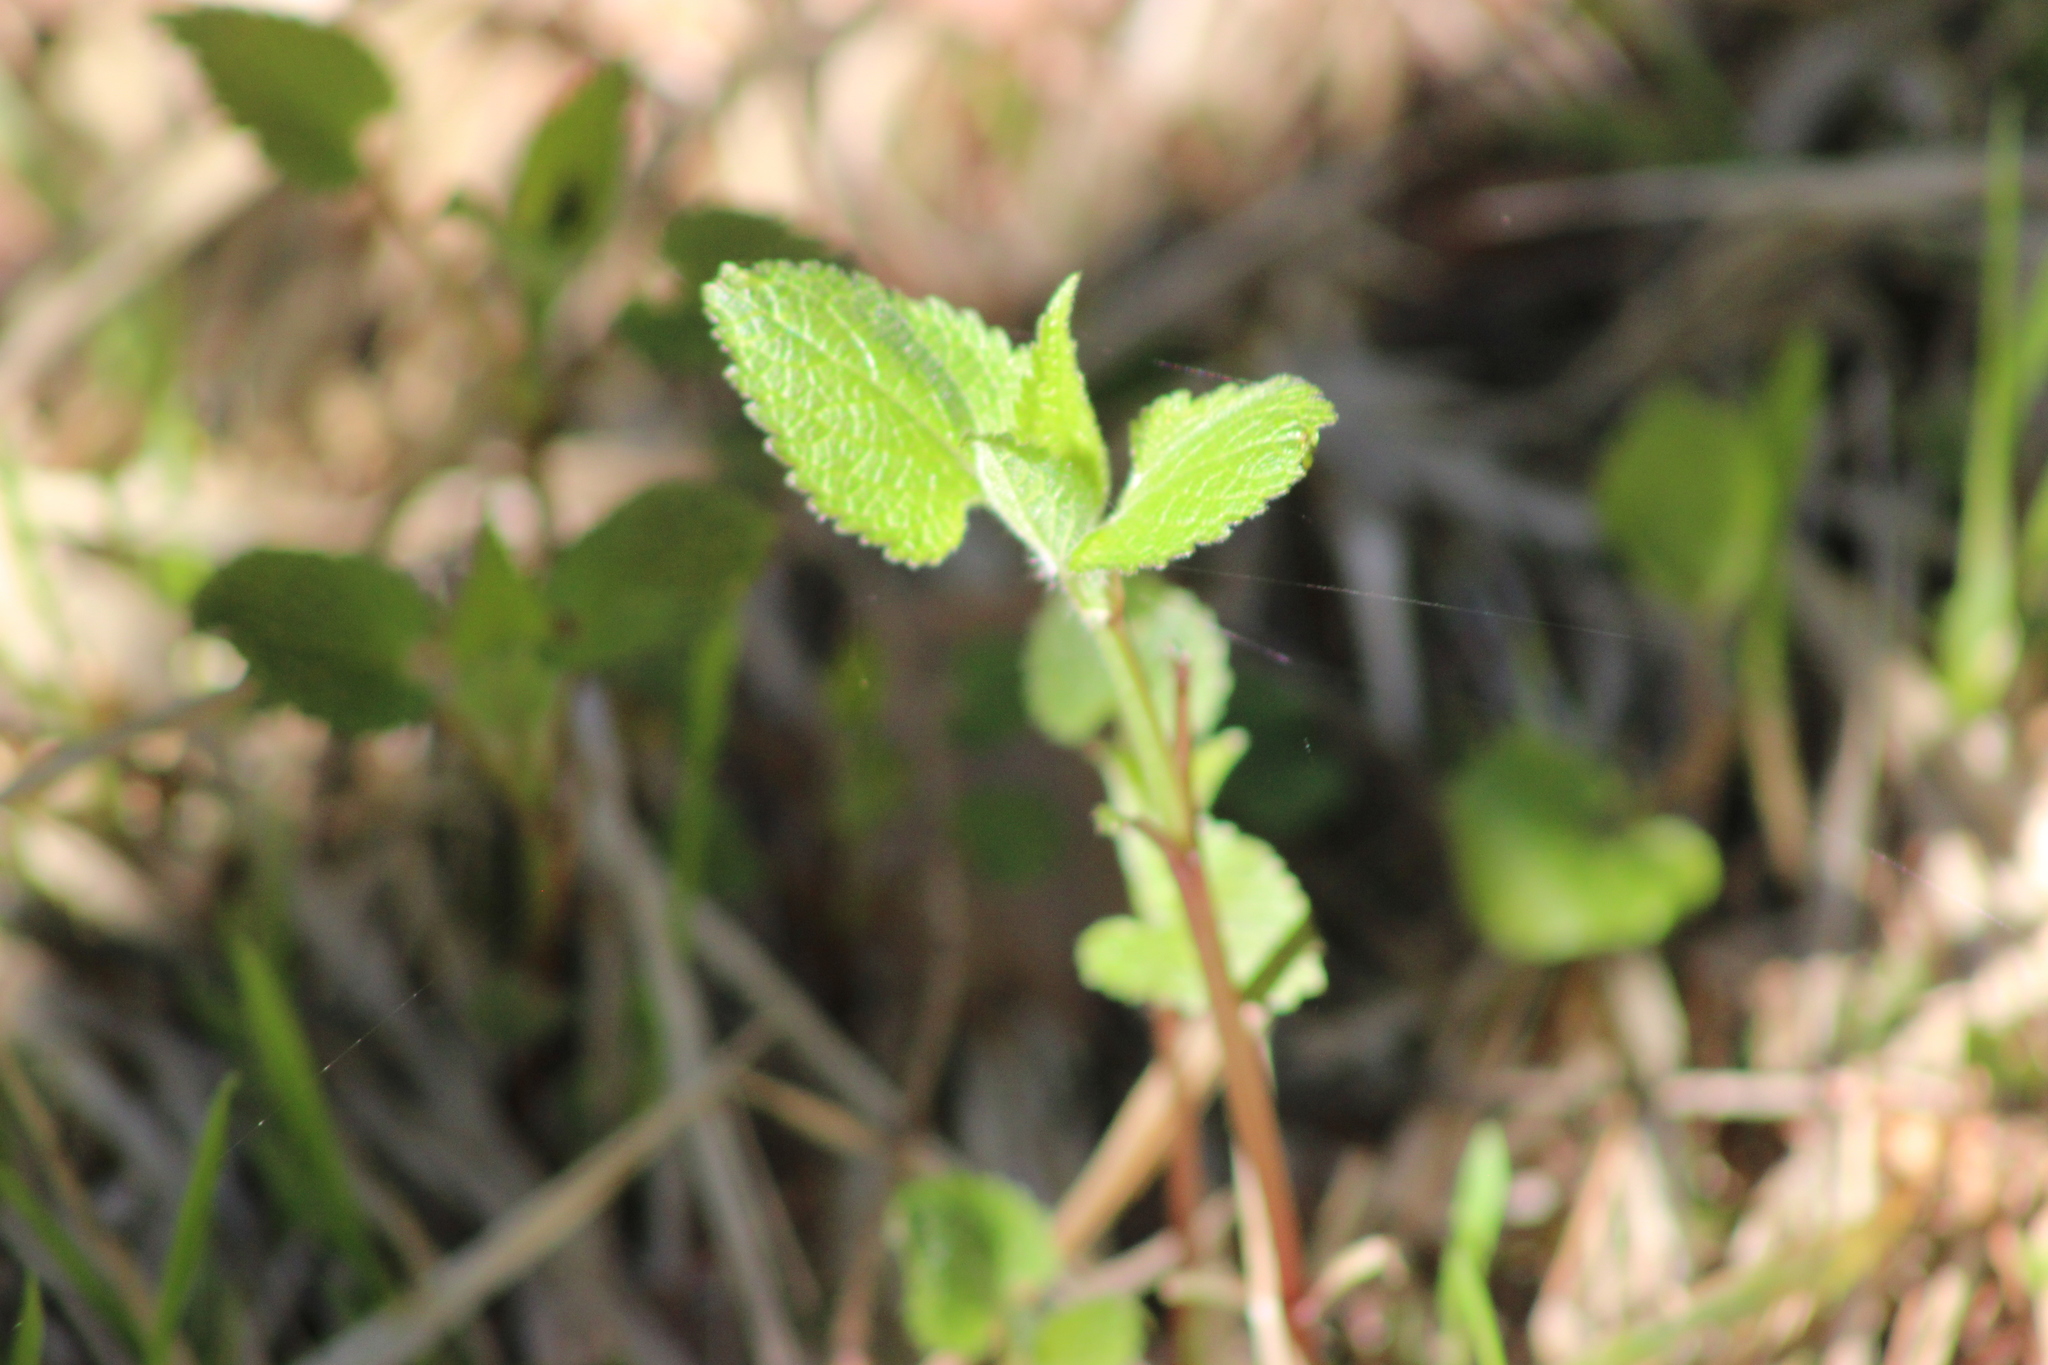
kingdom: Plantae
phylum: Tracheophyta
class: Magnoliopsida
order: Lamiales
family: Lamiaceae
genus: Lamium
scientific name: Lamium album
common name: White dead-nettle
